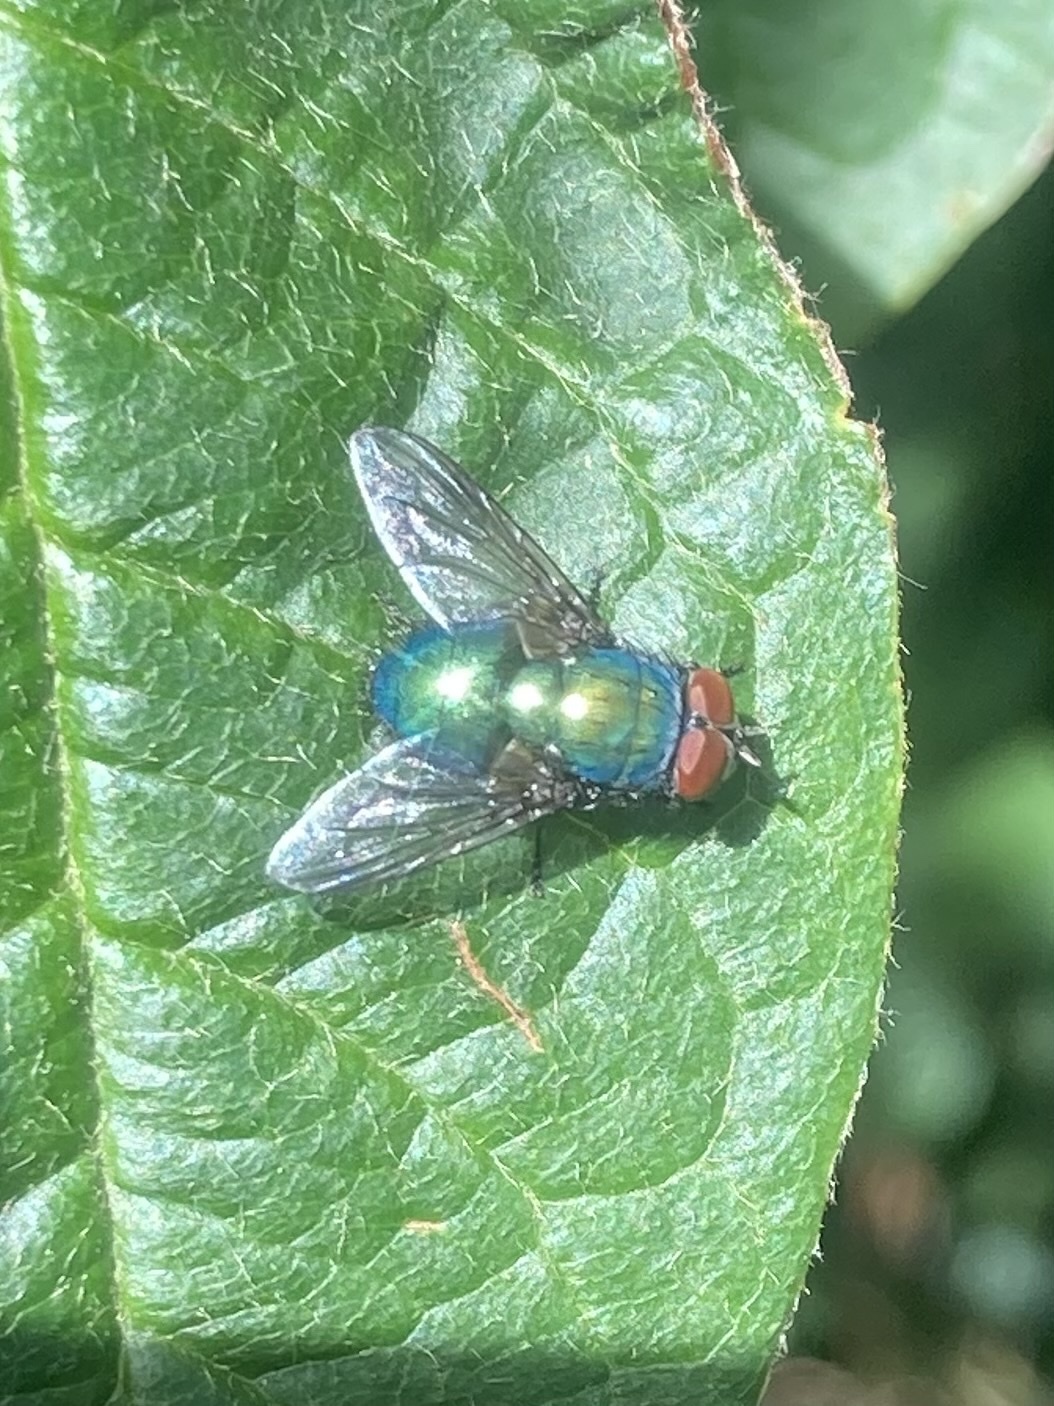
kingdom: Animalia
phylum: Arthropoda
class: Insecta
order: Diptera
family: Calliphoridae
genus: Lucilia
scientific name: Lucilia
